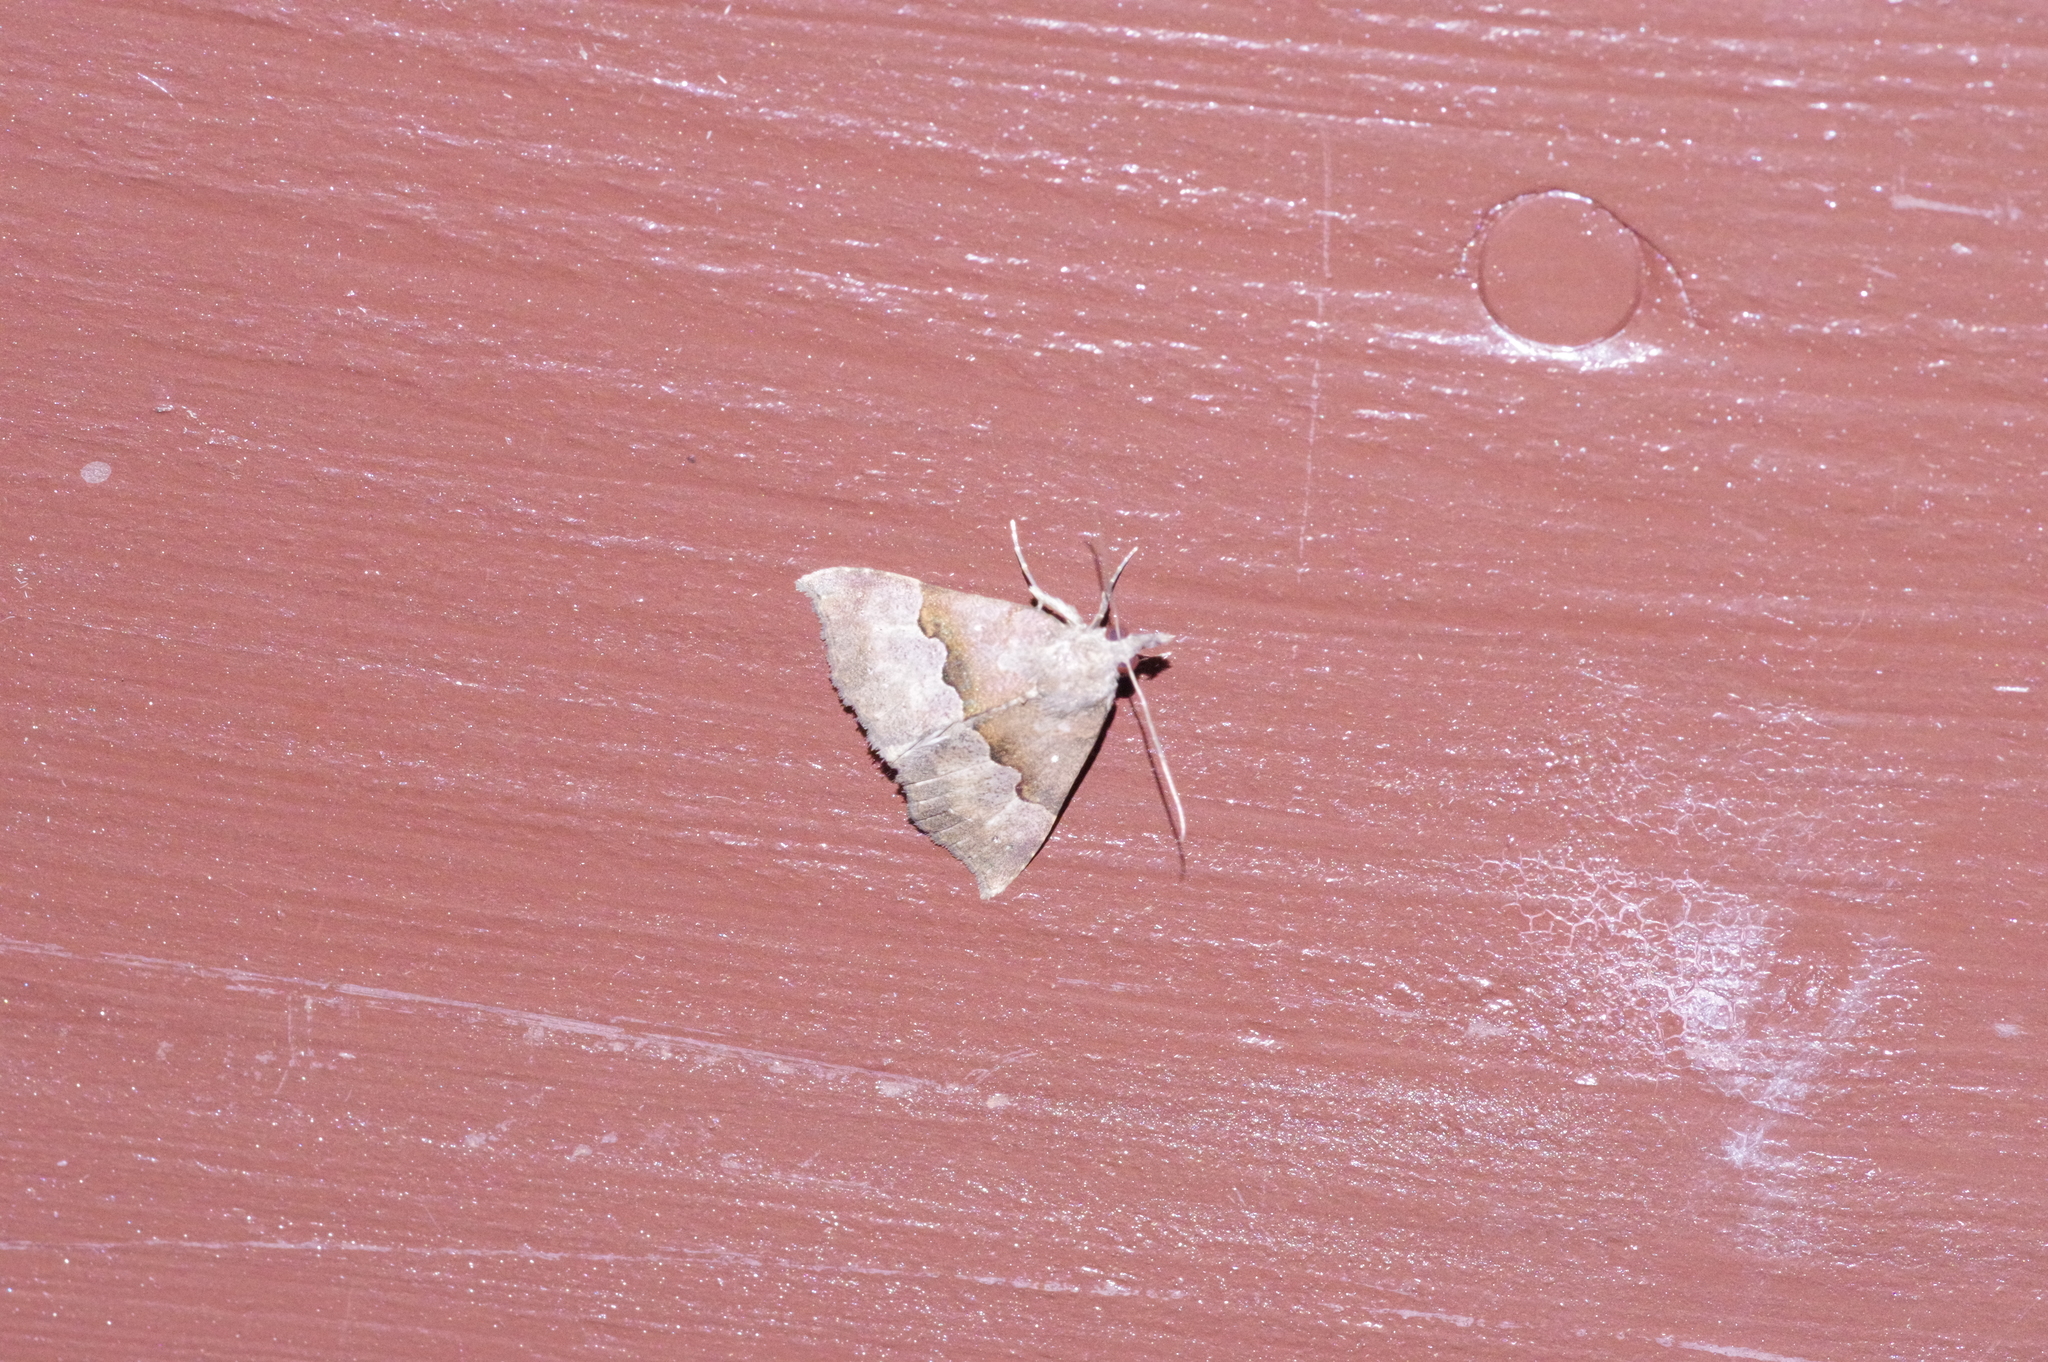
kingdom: Animalia
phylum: Arthropoda
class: Insecta
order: Lepidoptera
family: Erebidae
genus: Hypena
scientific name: Hypena sinuosa
